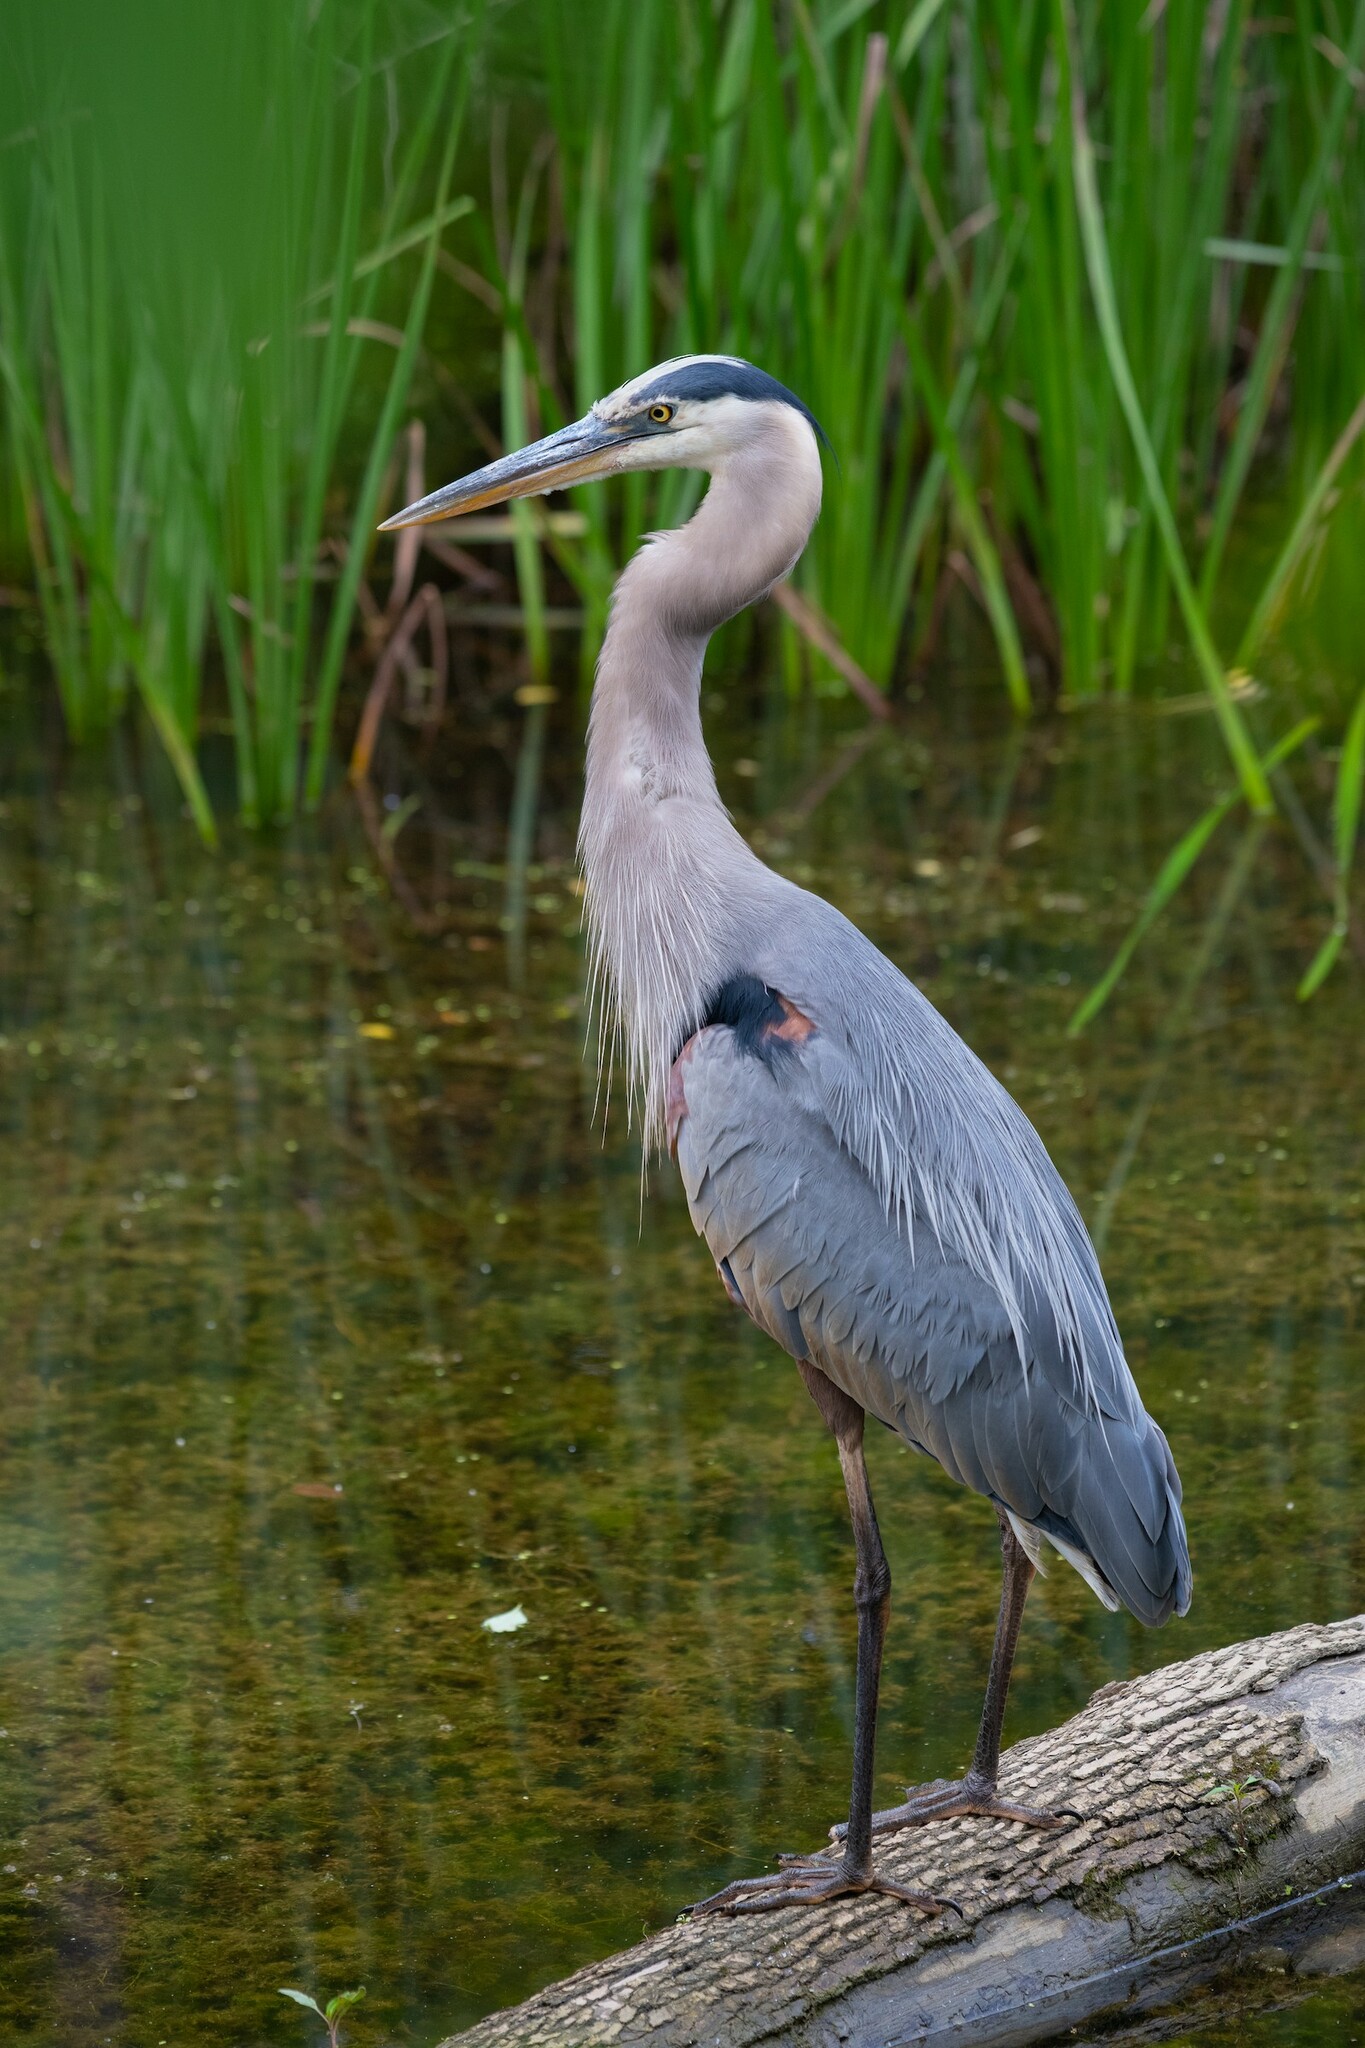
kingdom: Animalia
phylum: Chordata
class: Aves
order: Pelecaniformes
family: Ardeidae
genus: Ardea
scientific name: Ardea herodias
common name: Great blue heron
